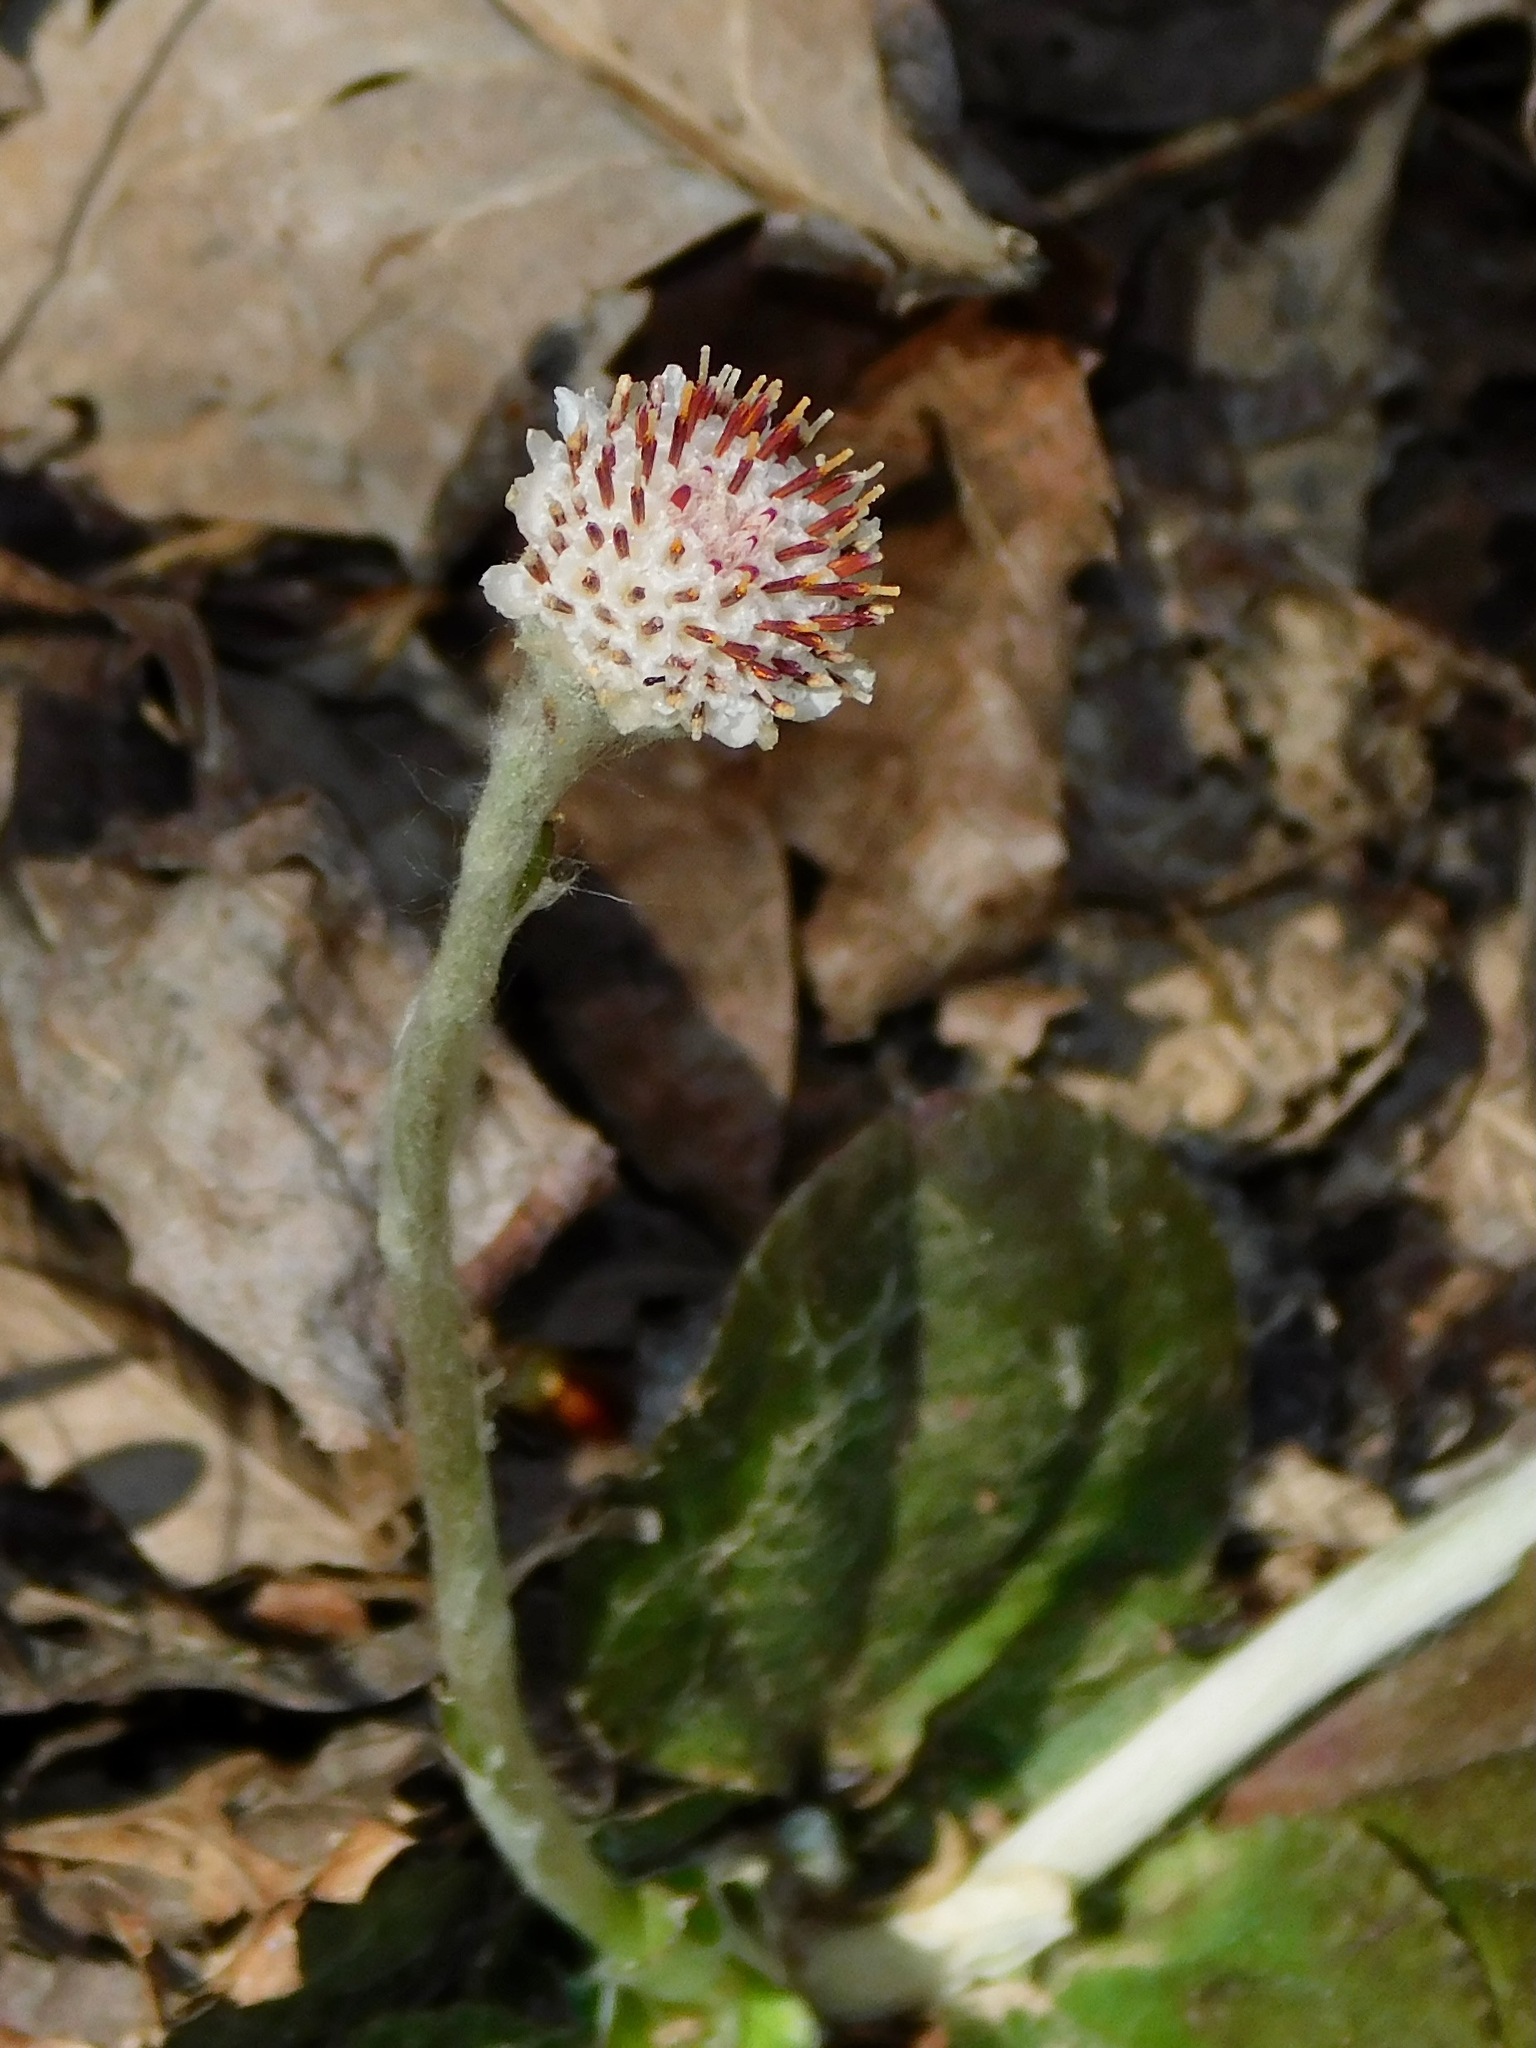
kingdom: Plantae
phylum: Tracheophyta
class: Magnoliopsida
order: Asterales
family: Asteraceae
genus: Antennaria
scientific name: Antennaria solitaria
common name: Single-head pussytoes
